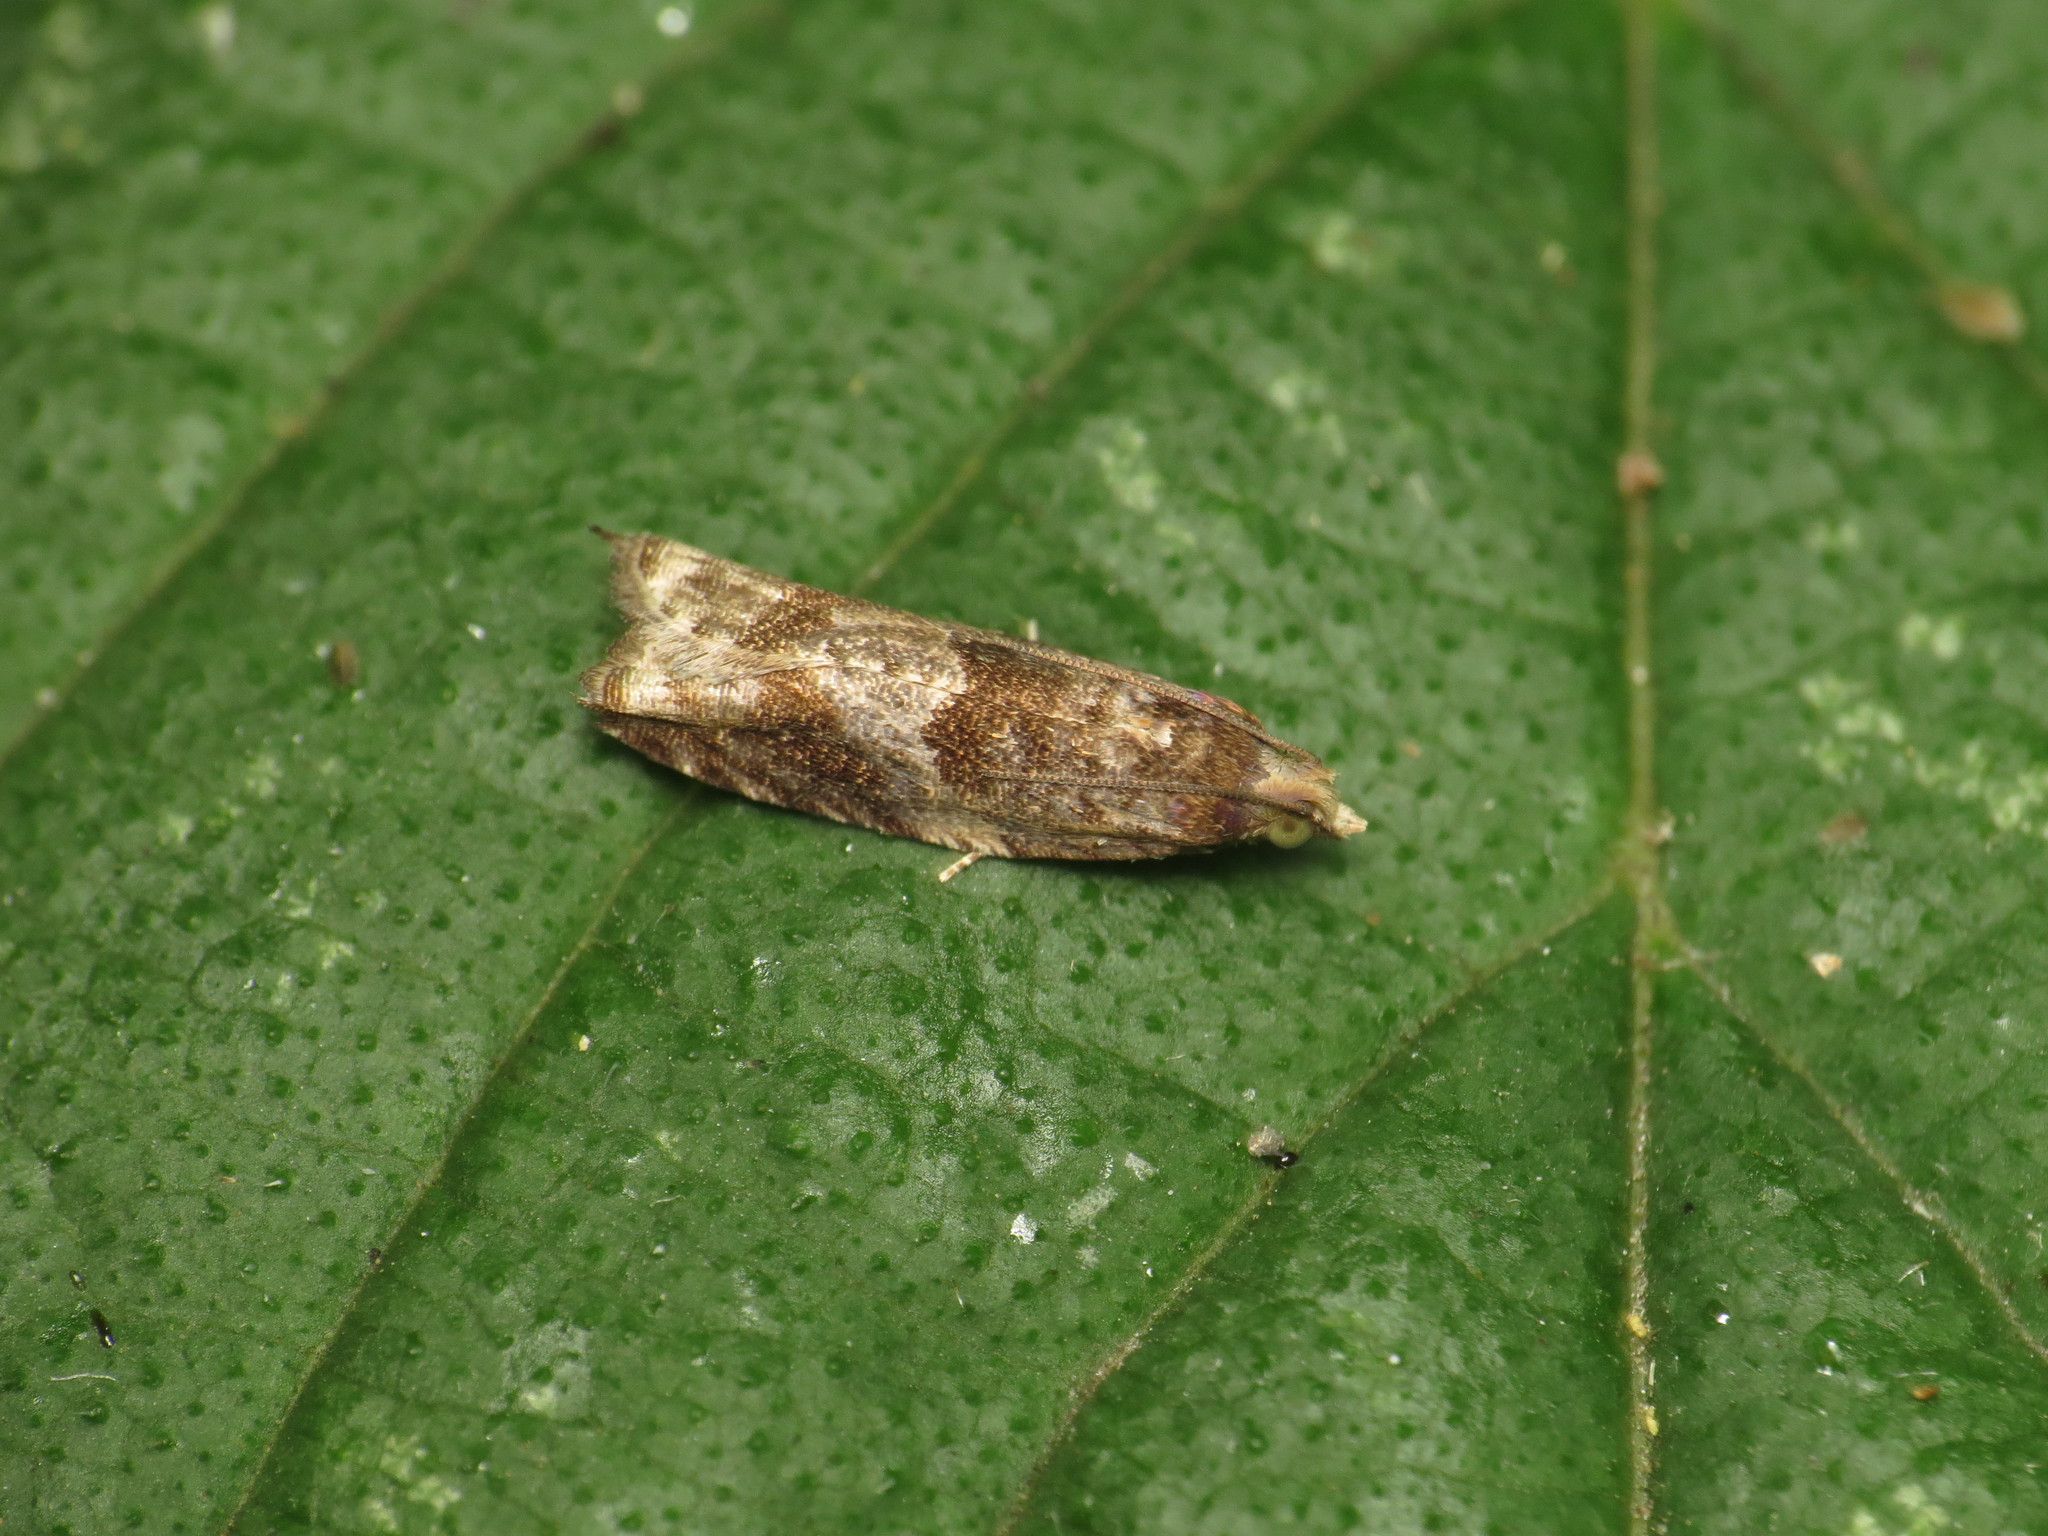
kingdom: Animalia
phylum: Arthropoda
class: Insecta
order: Lepidoptera
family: Tortricidae
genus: Rhopobota
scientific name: Rhopobota naevana
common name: Blackheaded fireworm, holly tortrix
